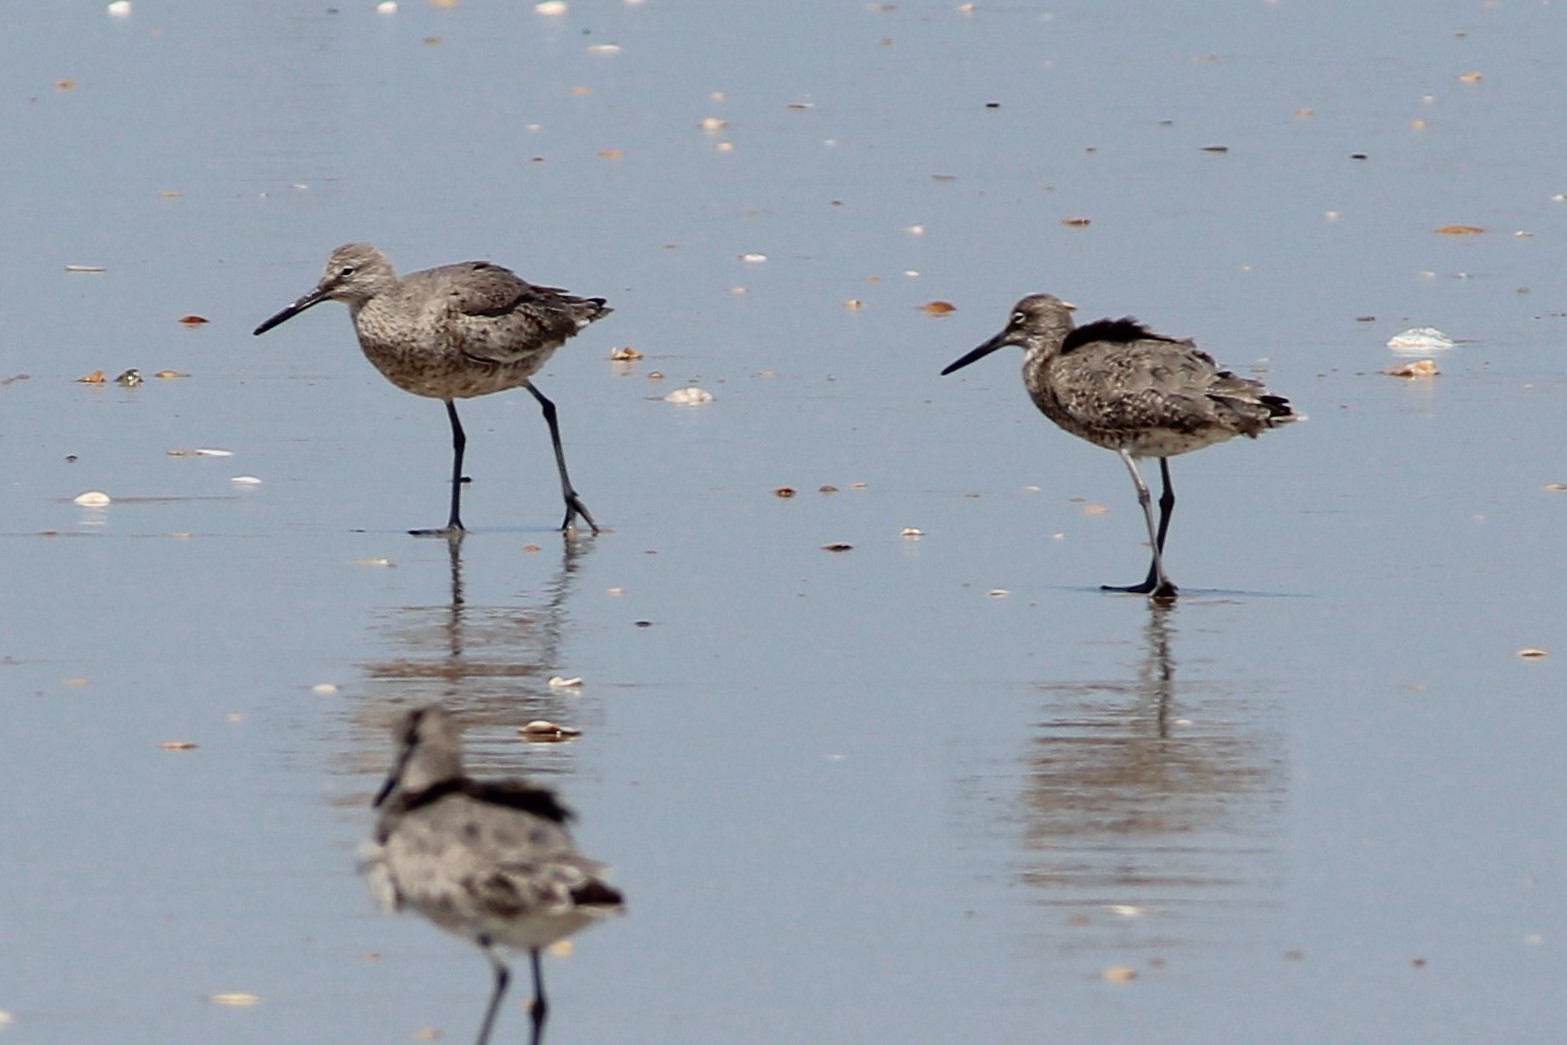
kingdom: Animalia
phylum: Chordata
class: Aves
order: Charadriiformes
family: Scolopacidae
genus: Tringa
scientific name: Tringa semipalmata
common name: Willet
